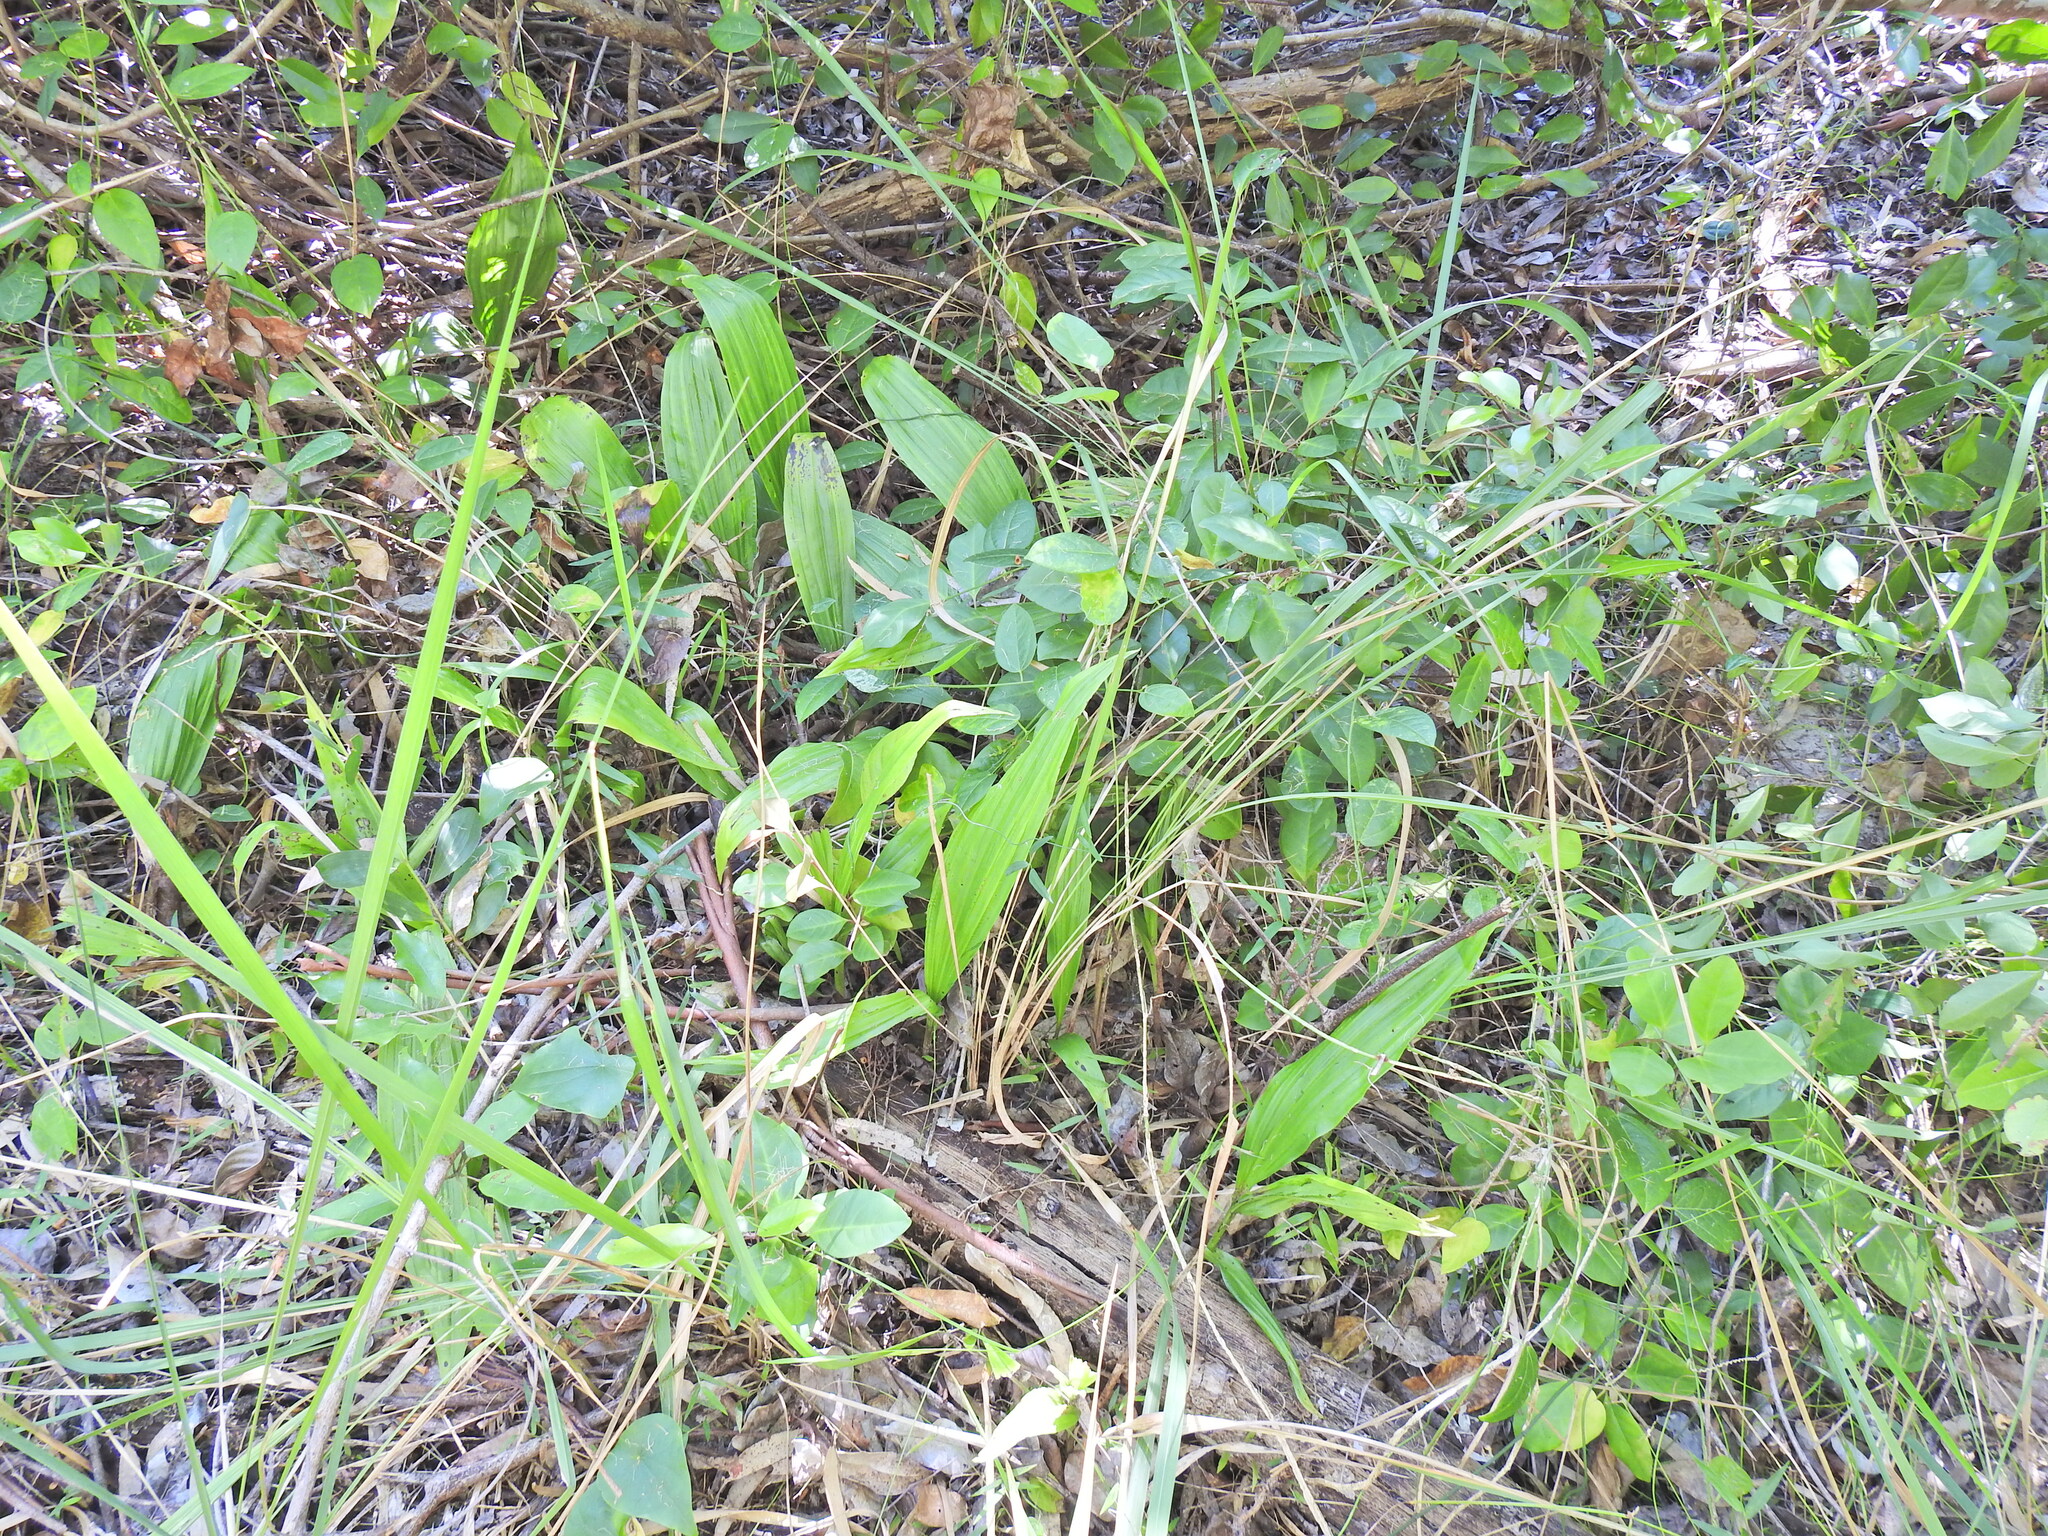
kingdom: Plantae
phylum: Tracheophyta
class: Liliopsida
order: Asparagales
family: Orchidaceae
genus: Eulophia
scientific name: Eulophia cernua
